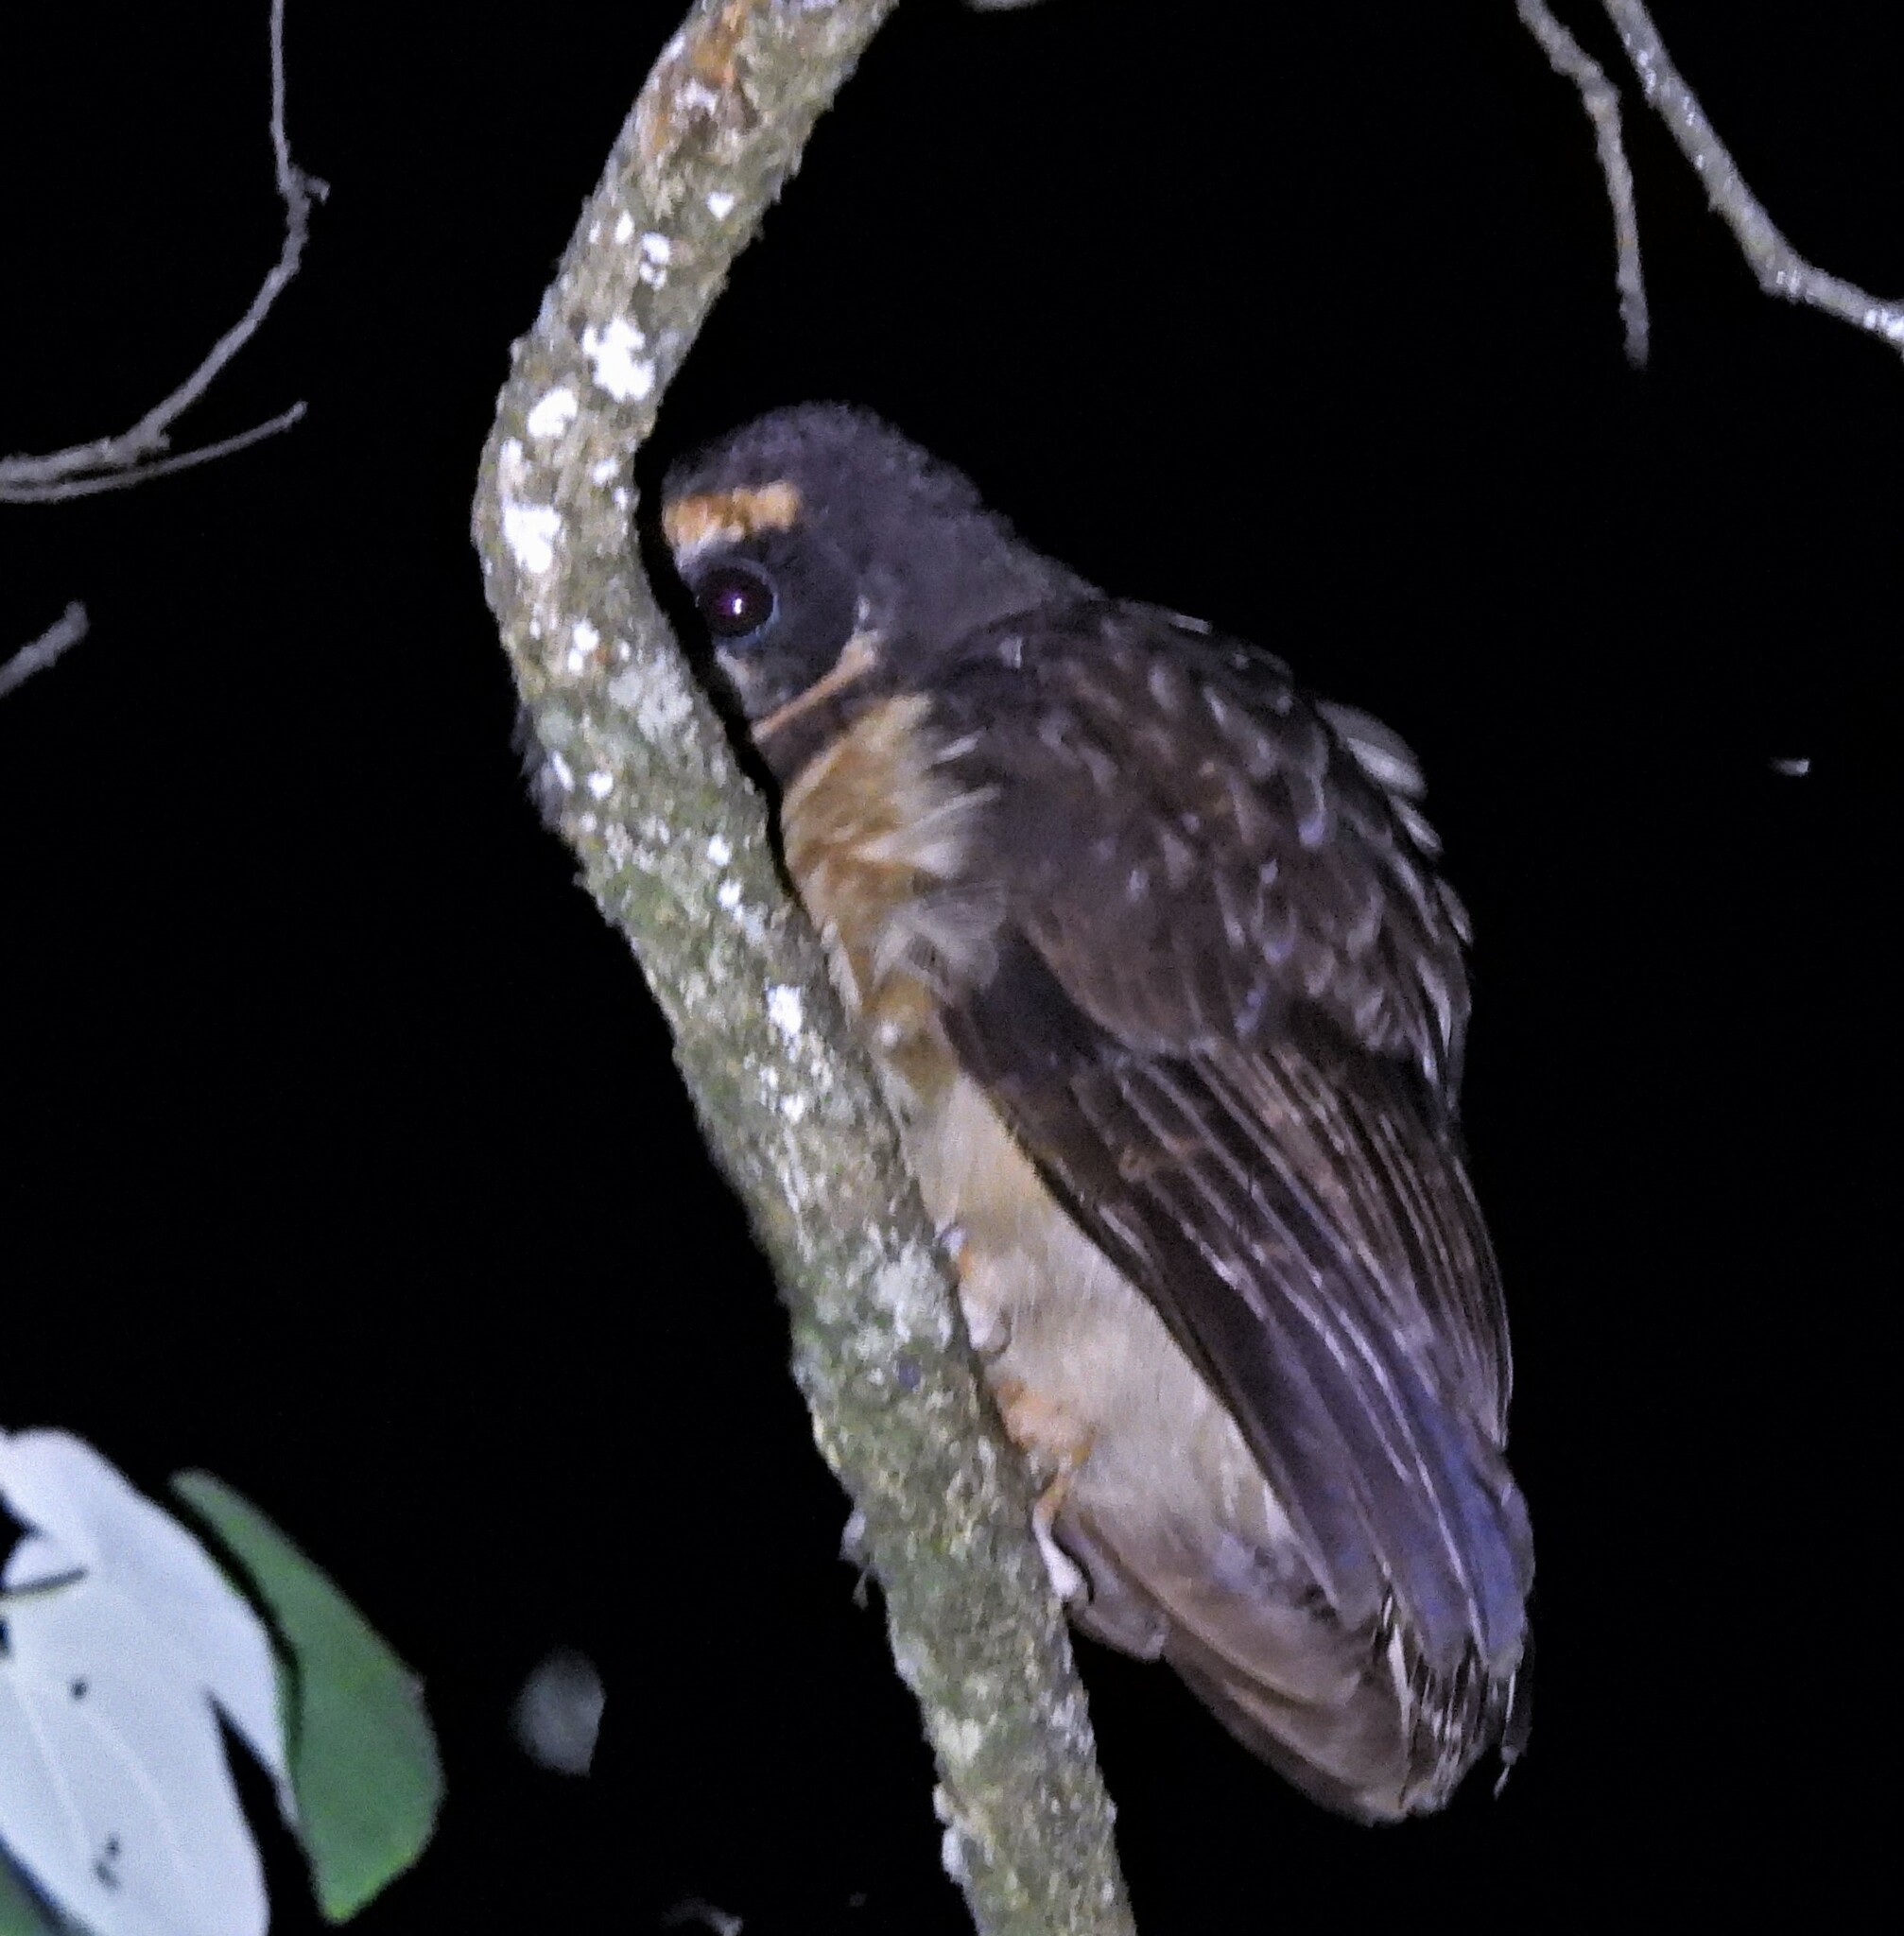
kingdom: Animalia
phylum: Chordata
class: Aves
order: Strigiformes
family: Strigidae
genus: Pulsatrix
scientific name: Pulsatrix koeniswaldiana
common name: Tawny-browed owl
